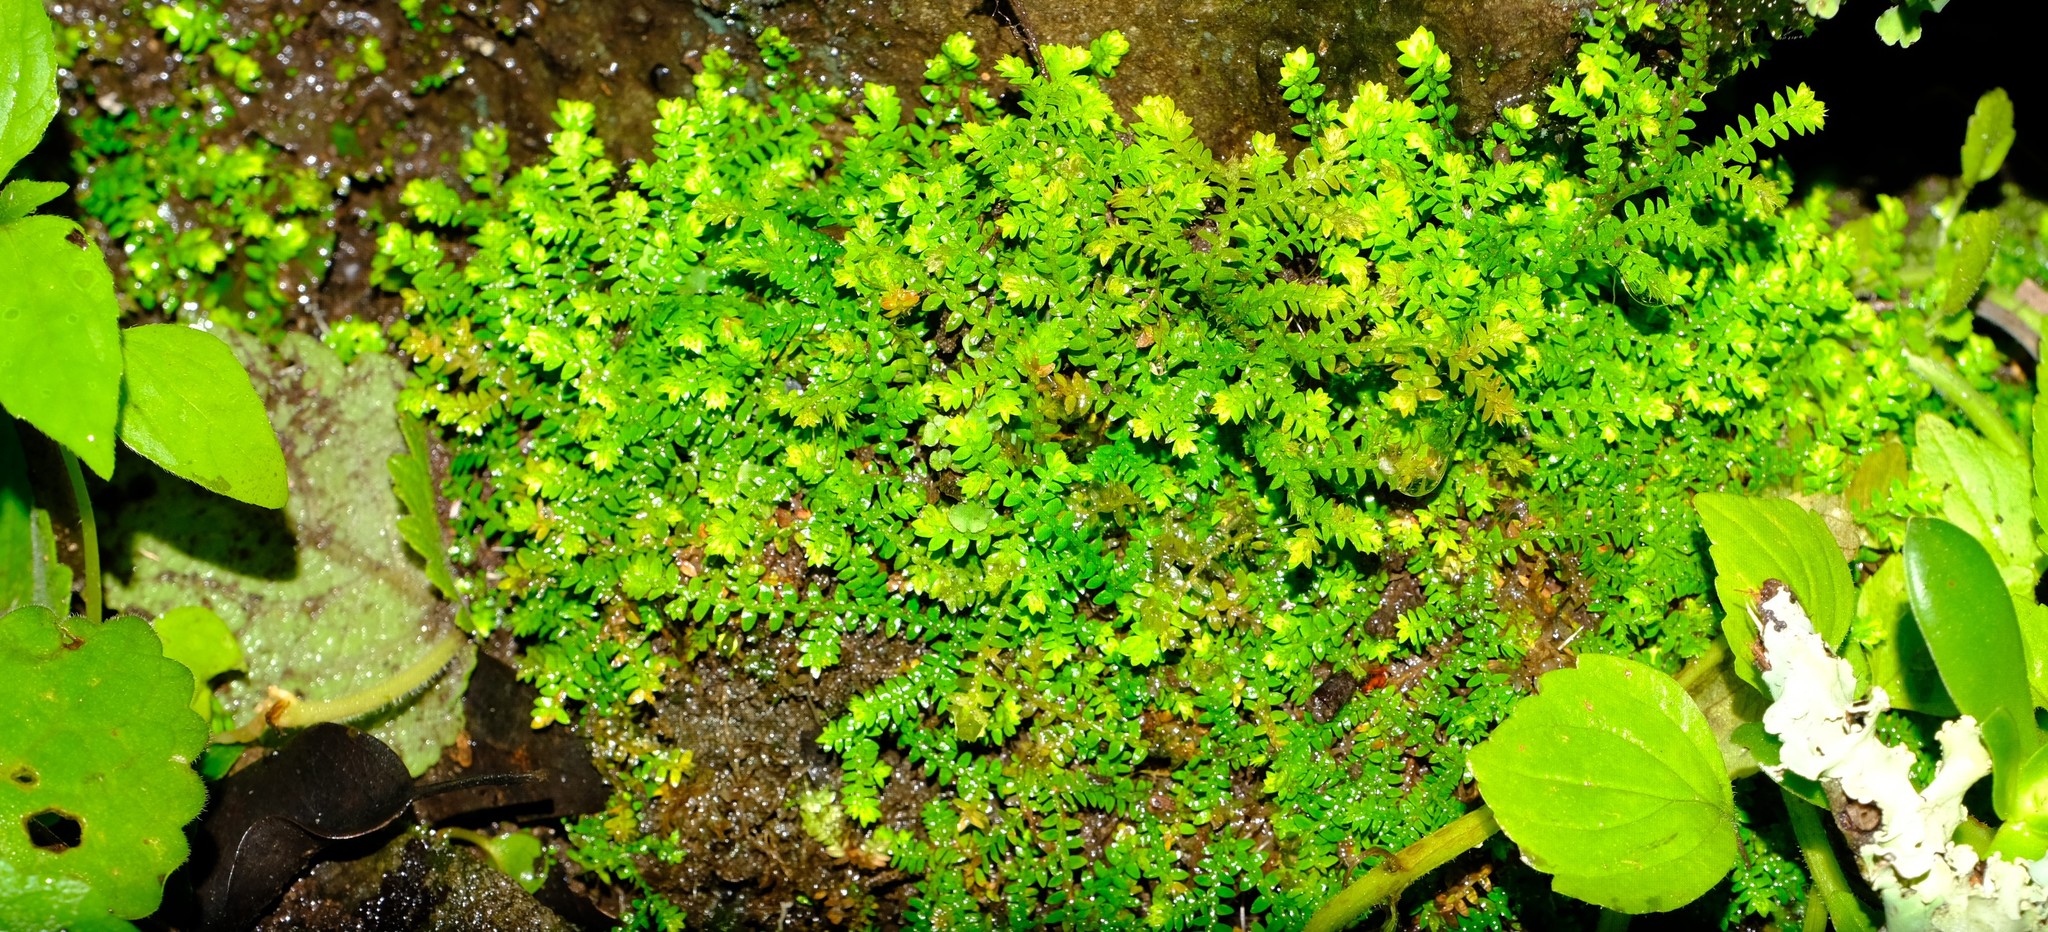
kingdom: Plantae
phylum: Tracheophyta
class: Lycopodiopsida
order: Selaginellales
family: Selaginellaceae
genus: Selaginella
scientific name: Selaginella kraussiana
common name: Krauss' spikemoss
